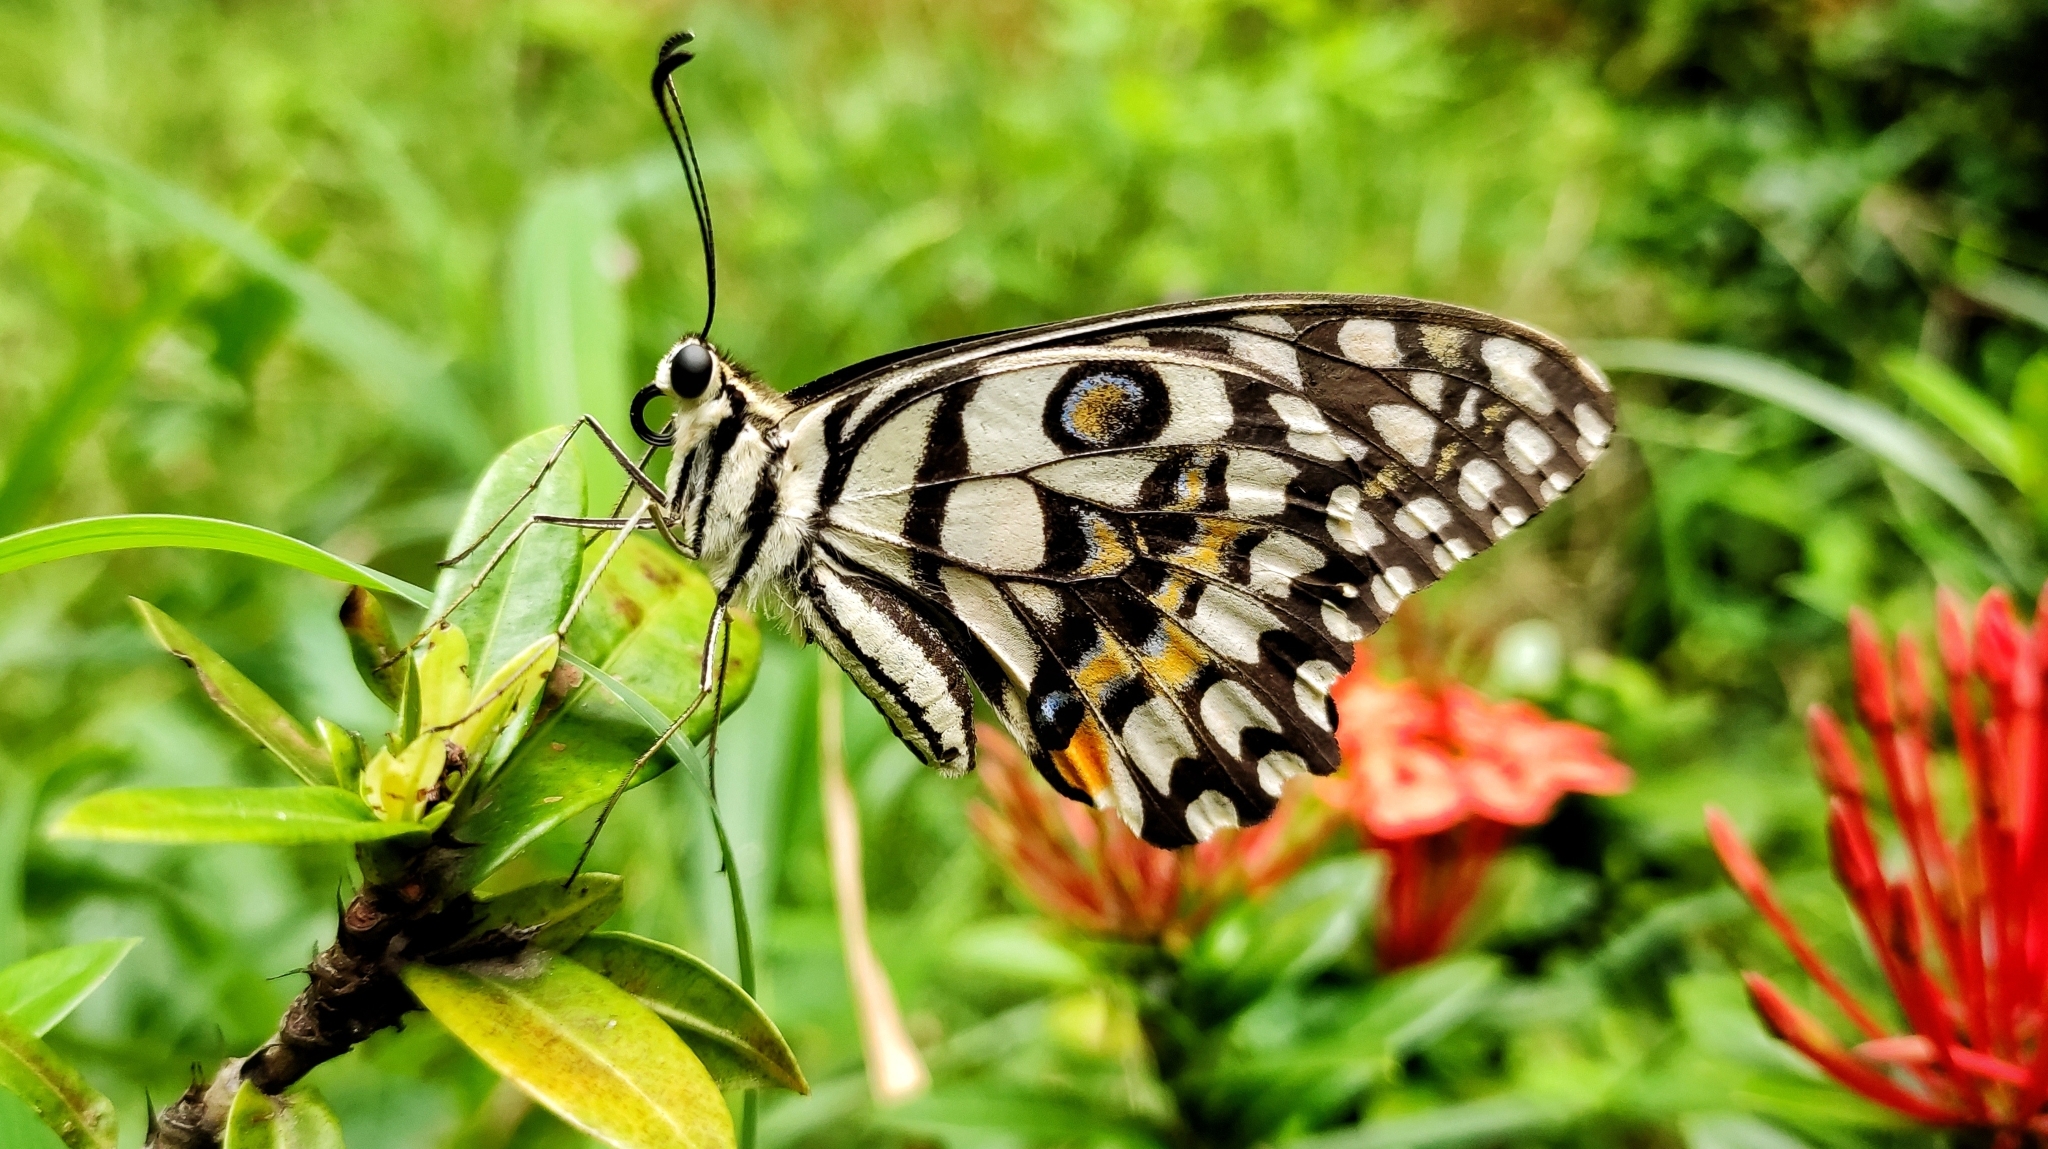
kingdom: Animalia
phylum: Arthropoda
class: Insecta
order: Lepidoptera
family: Papilionidae
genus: Papilio
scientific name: Papilio demoleus
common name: Lime butterfly
